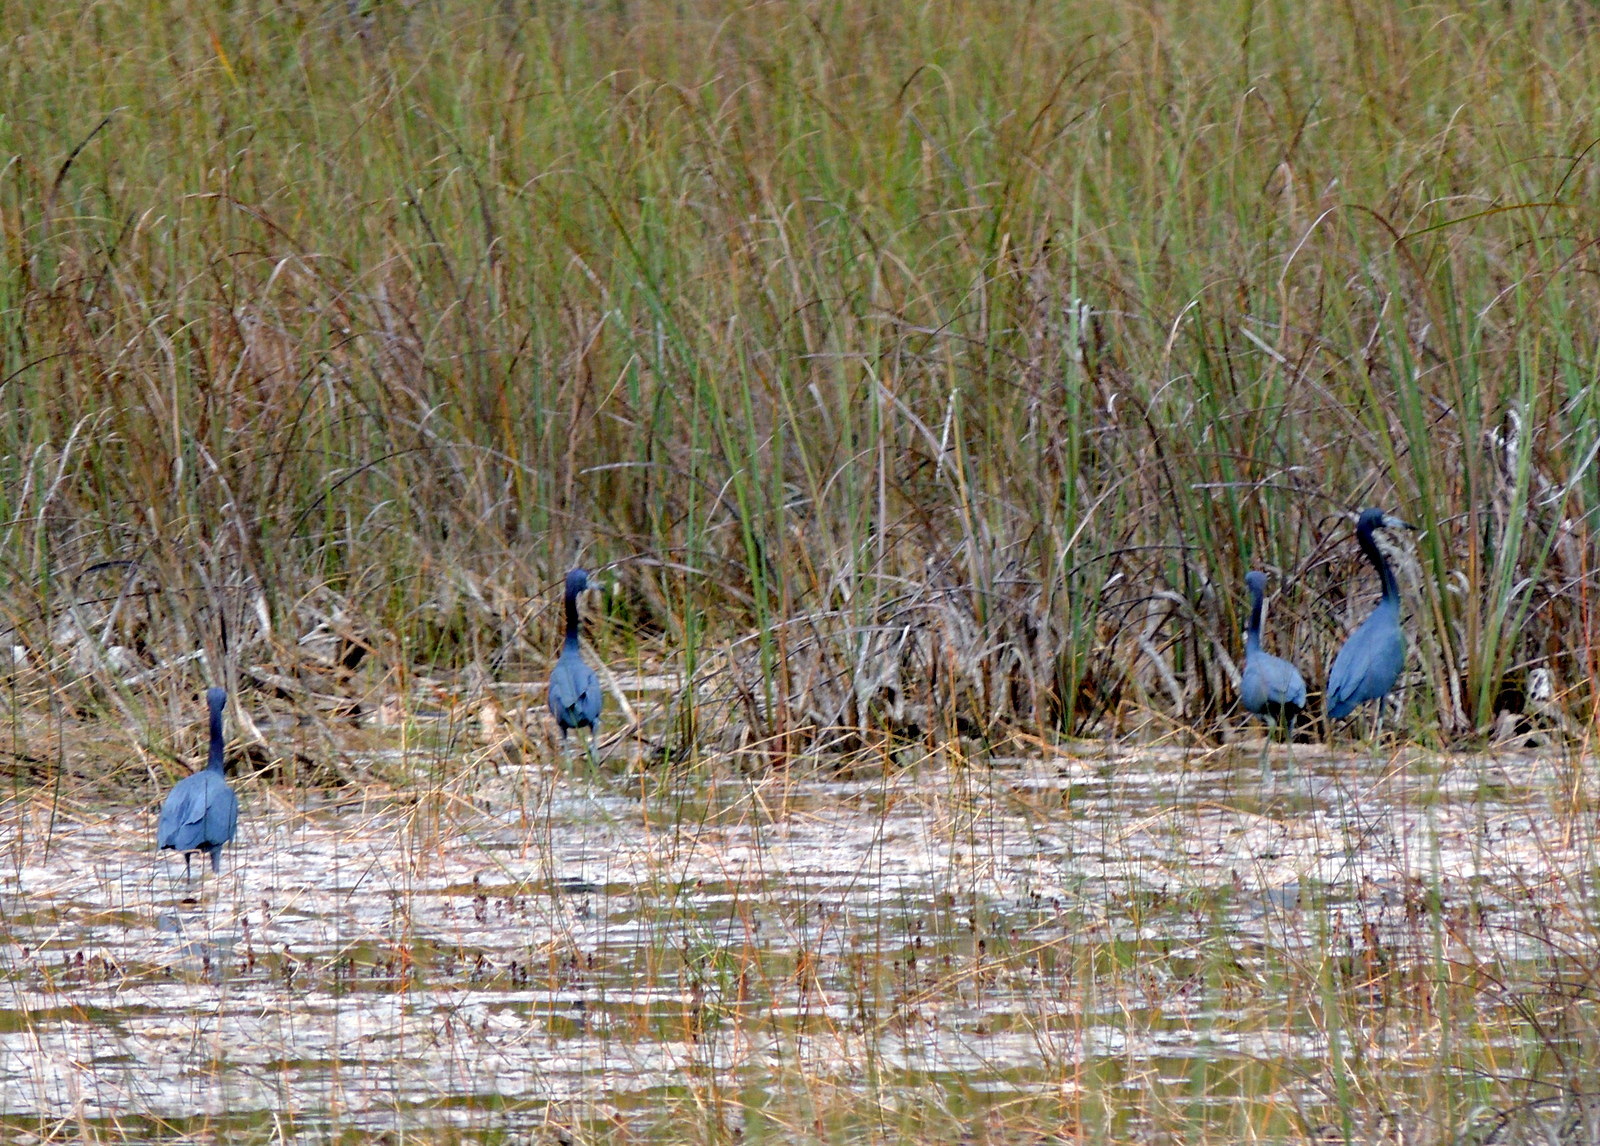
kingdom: Animalia
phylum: Chordata
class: Aves
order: Pelecaniformes
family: Ardeidae
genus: Egretta
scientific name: Egretta caerulea
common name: Little blue heron
